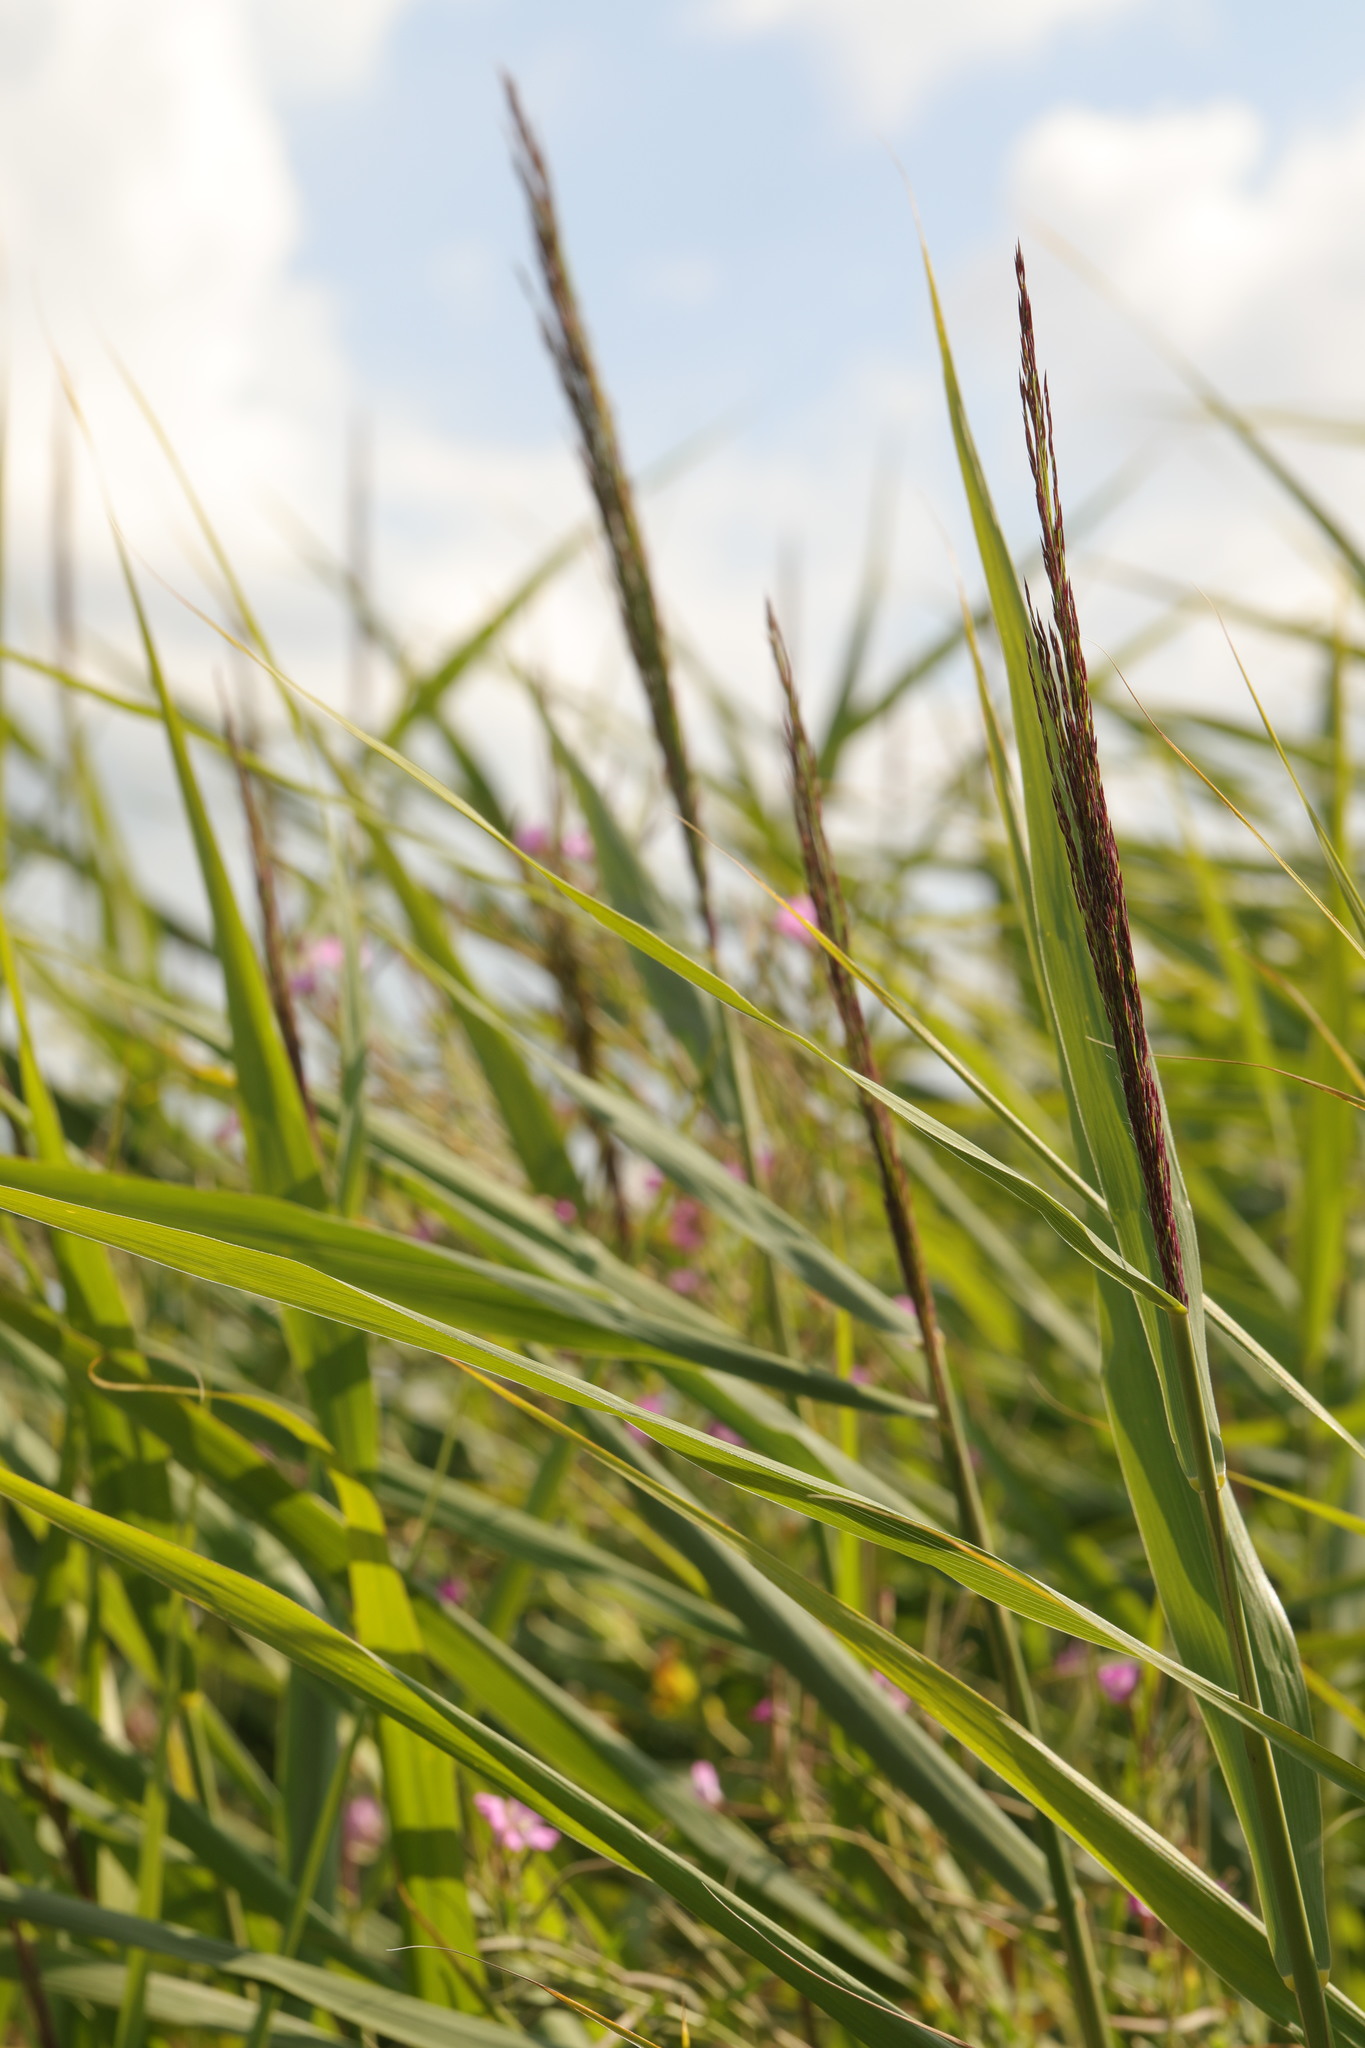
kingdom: Plantae
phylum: Tracheophyta
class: Liliopsida
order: Poales
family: Poaceae
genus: Phragmites
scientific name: Phragmites australis
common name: Common reed
